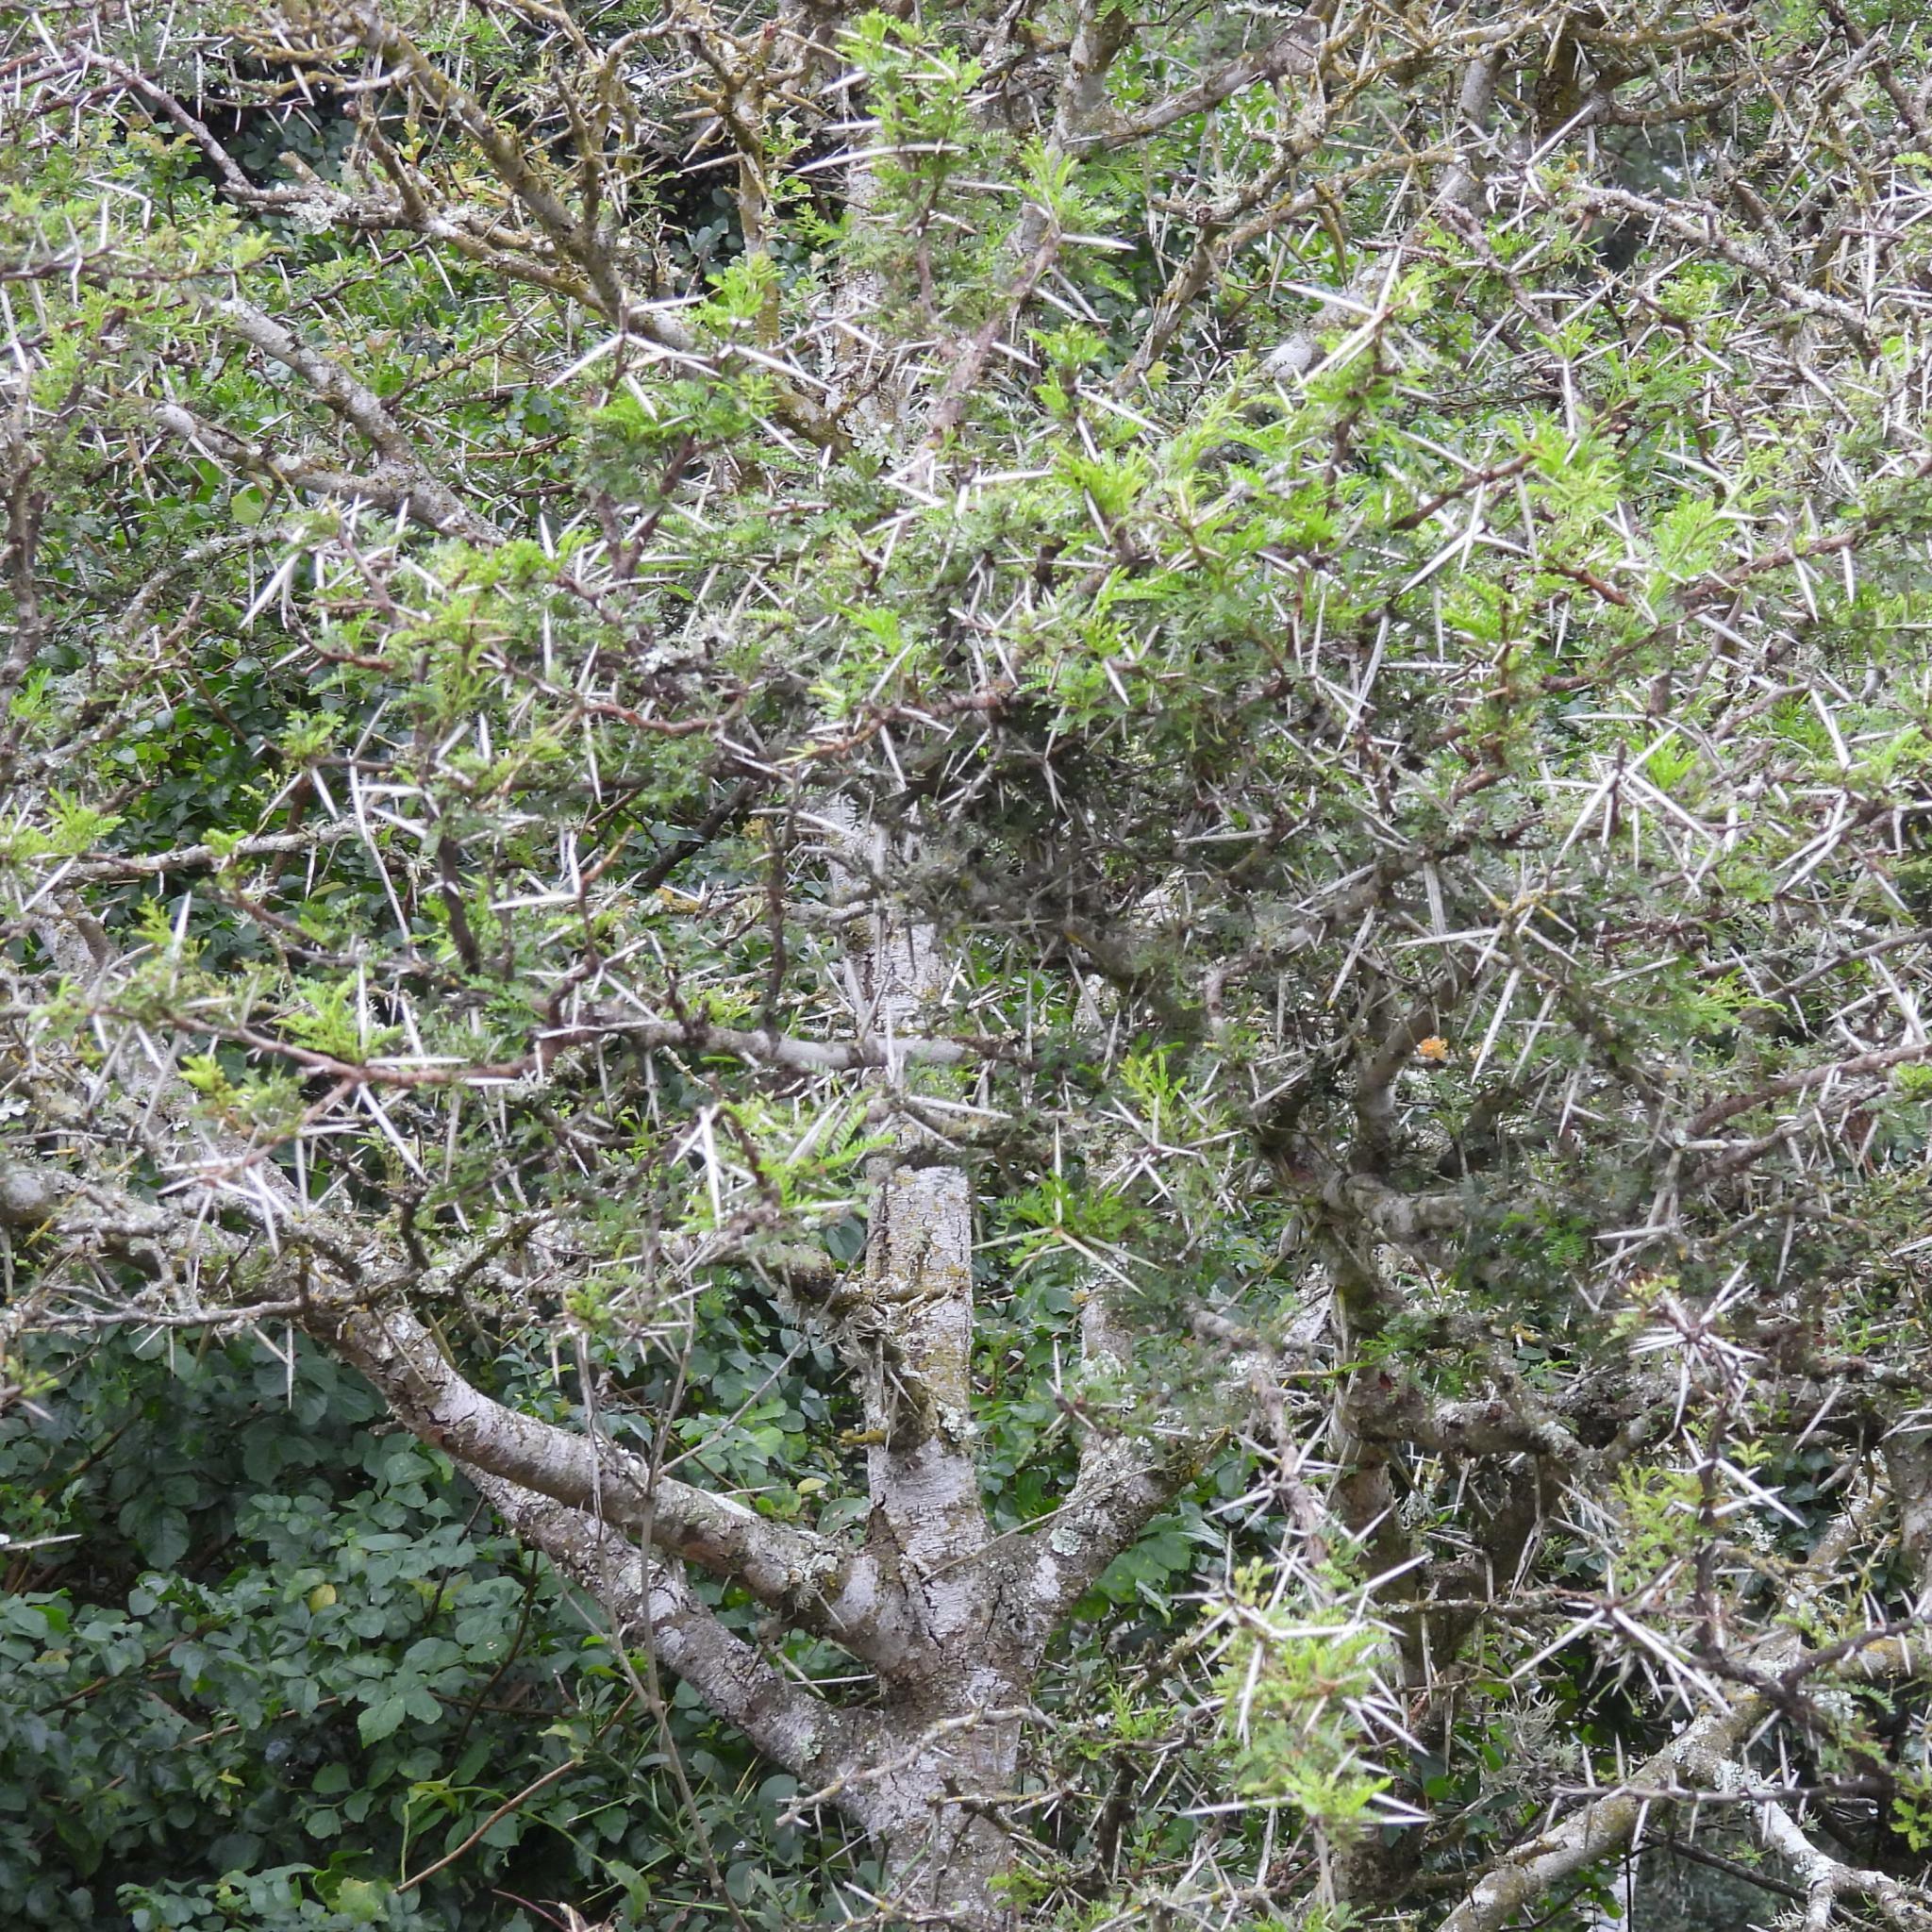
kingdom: Plantae
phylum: Tracheophyta
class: Magnoliopsida
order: Fabales
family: Fabaceae
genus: Vachellia
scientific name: Vachellia karroo
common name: Sweet thorn
